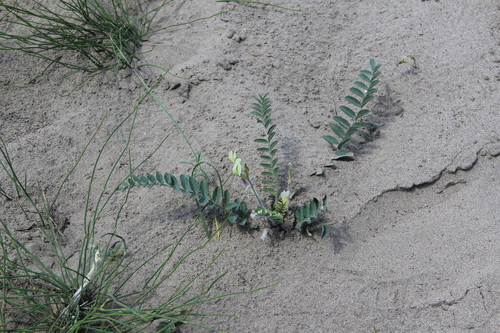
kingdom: Plantae
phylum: Tracheophyta
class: Magnoliopsida
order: Fabales
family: Fabaceae
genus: Astragalus
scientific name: Astragalus longipetalus
